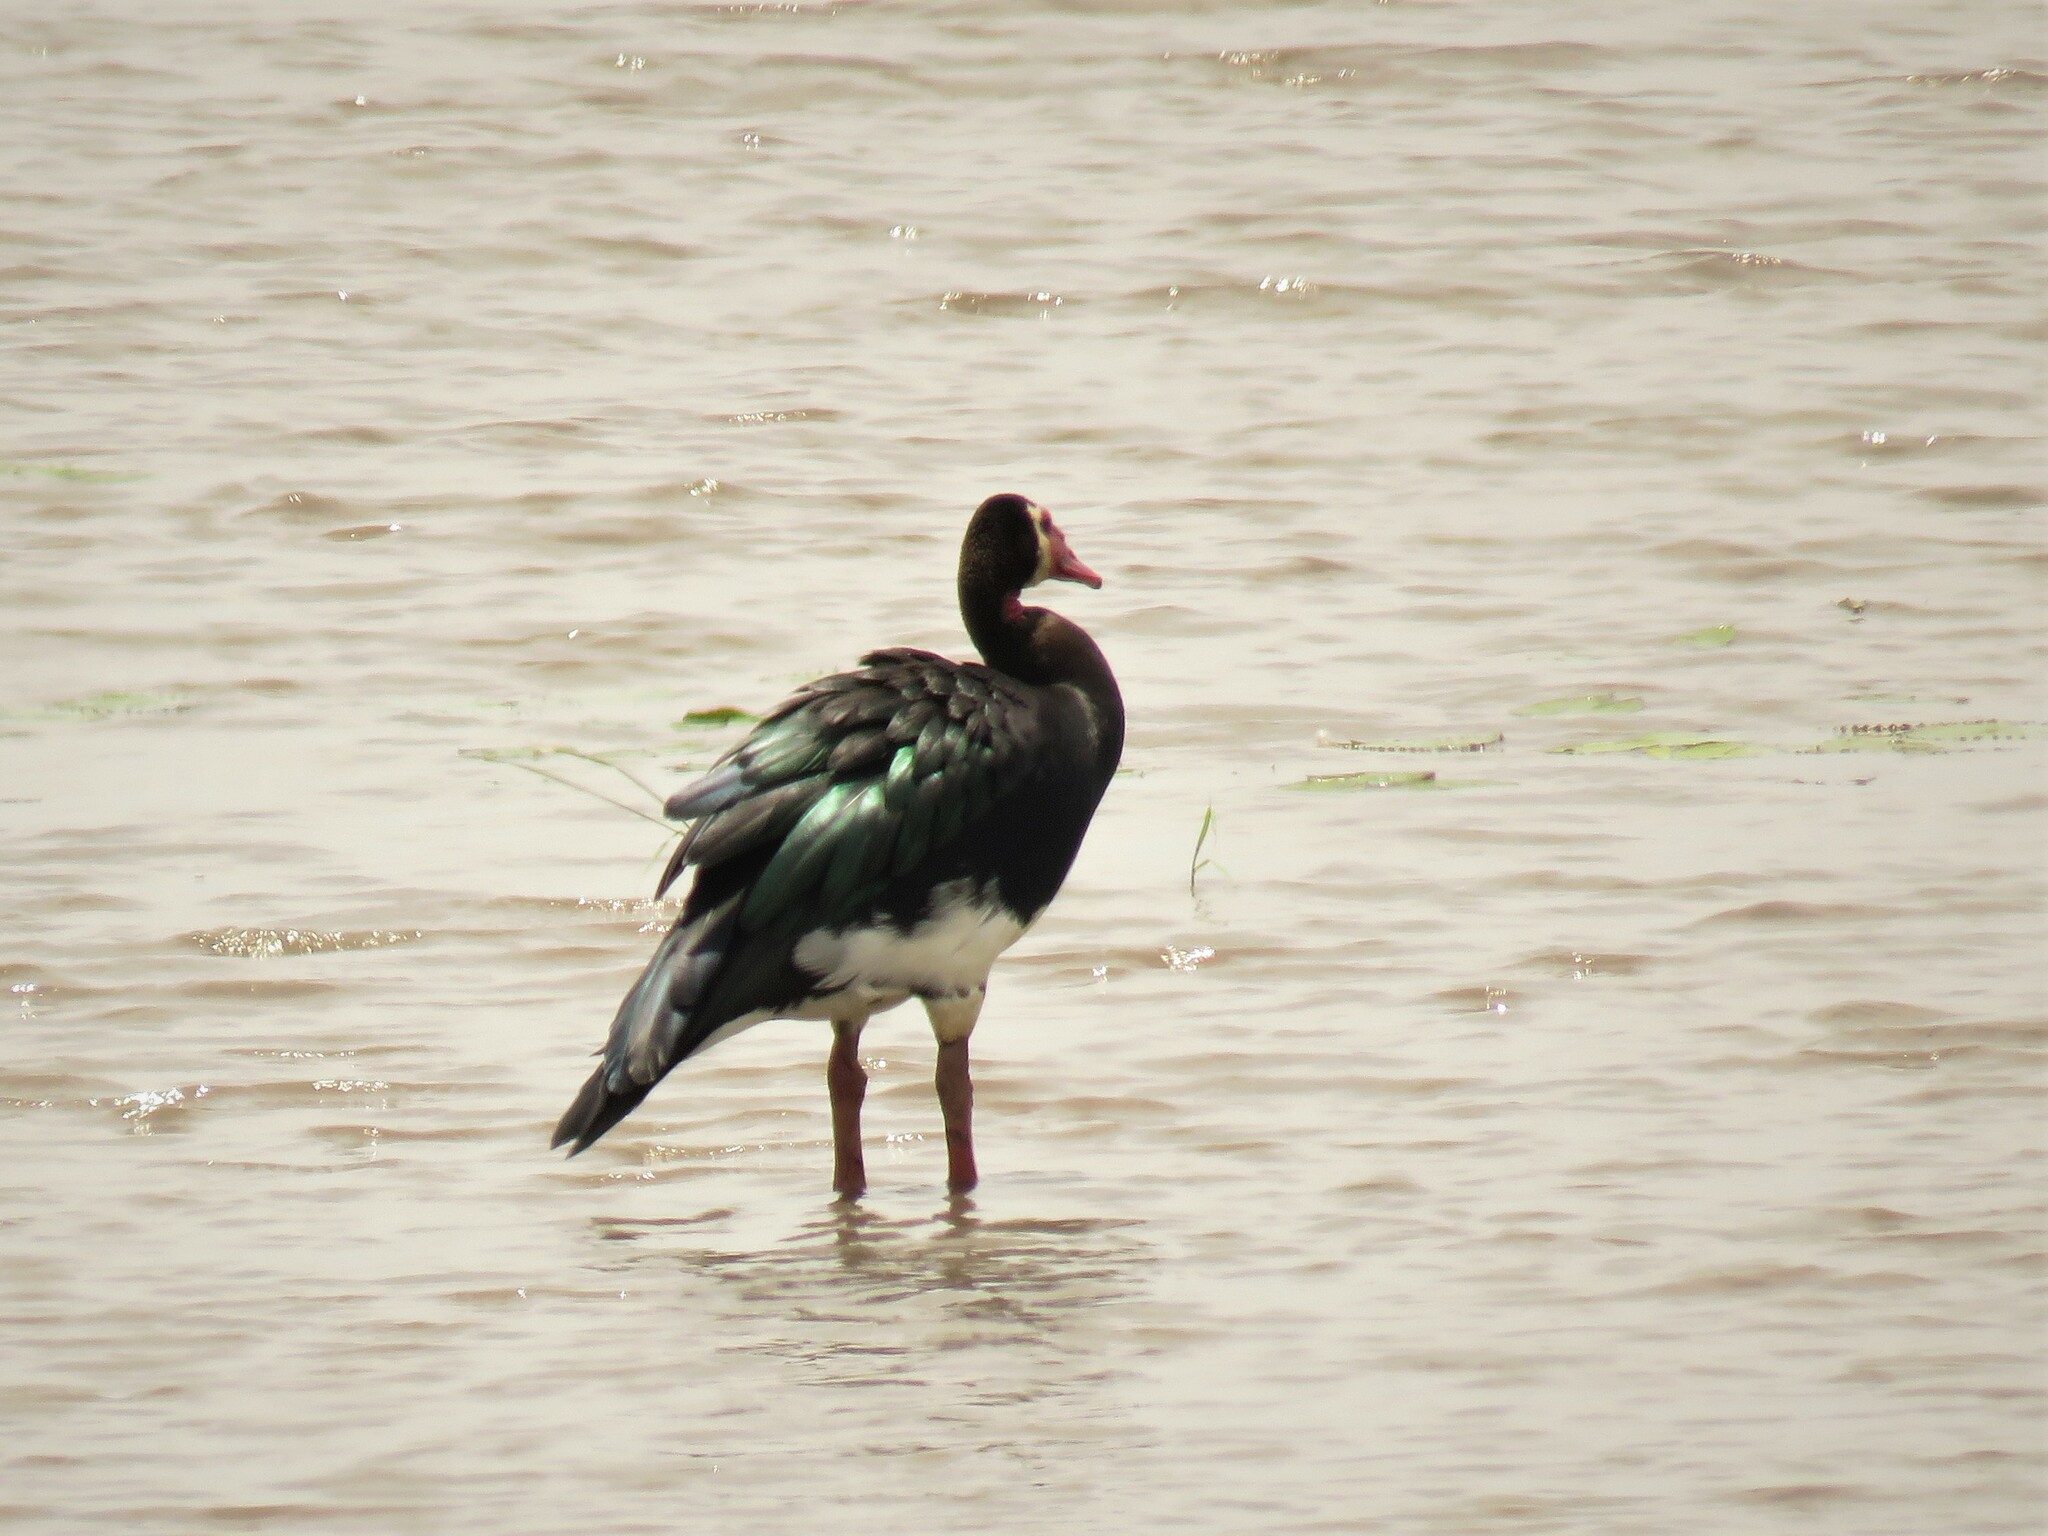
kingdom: Animalia
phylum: Chordata
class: Aves
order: Anseriformes
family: Anatidae
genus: Plectropterus
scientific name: Plectropterus gambensis
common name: Spur-winged goose
